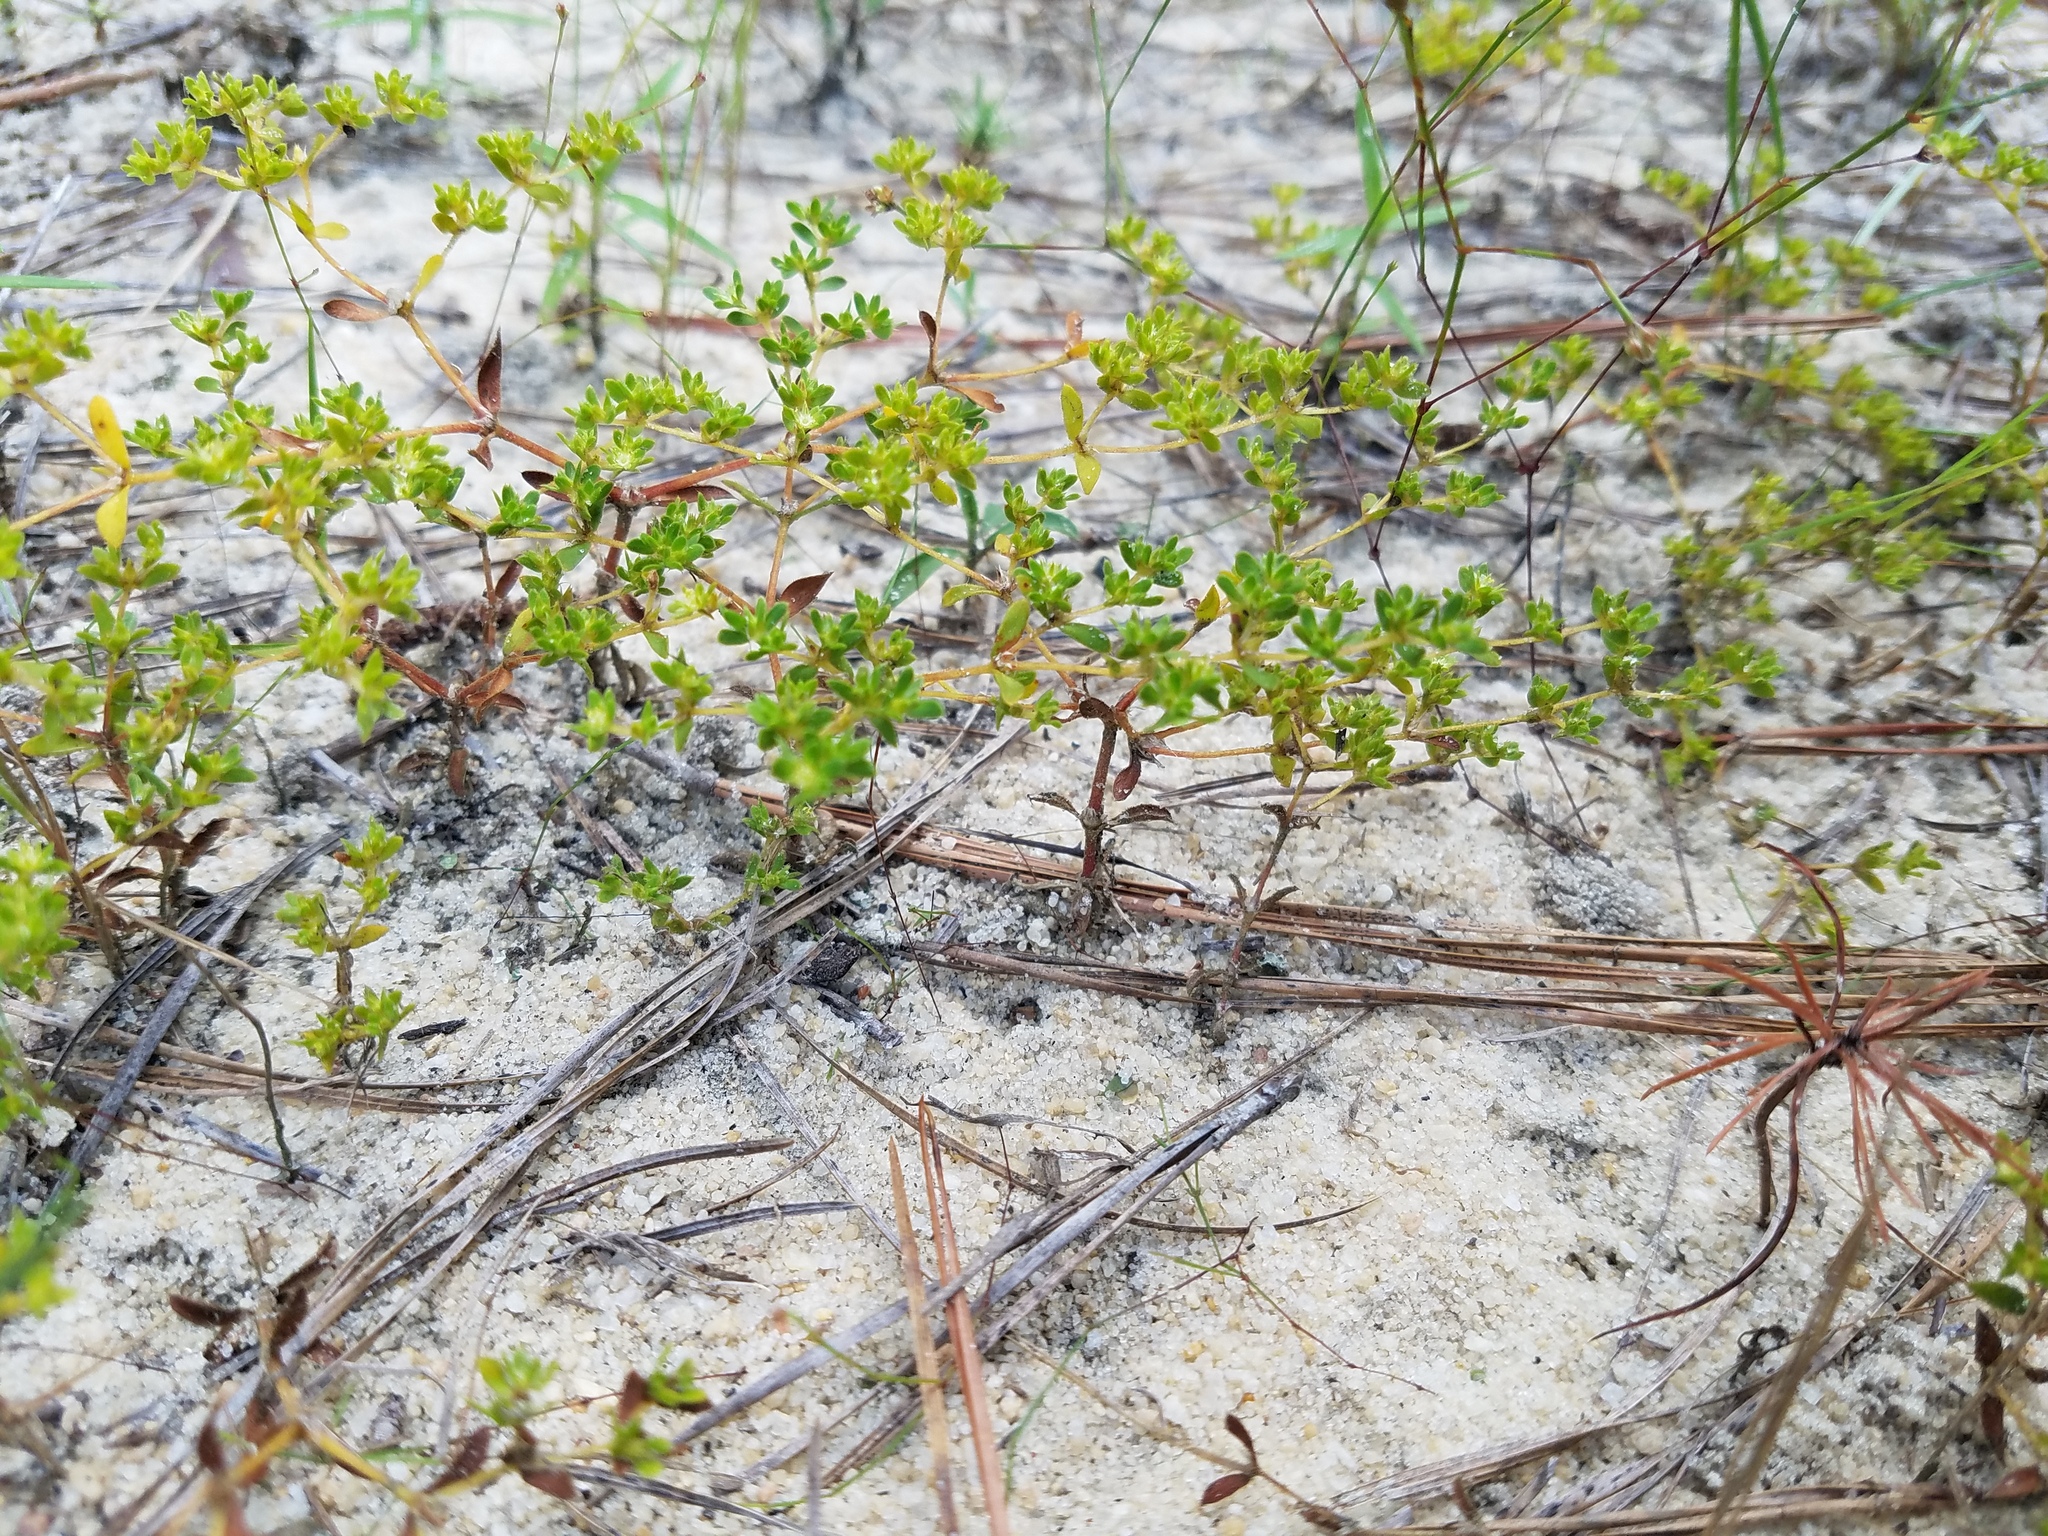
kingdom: Plantae
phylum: Tracheophyta
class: Magnoliopsida
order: Caryophyllales
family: Caryophyllaceae
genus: Paronychia
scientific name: Paronychia herniarioides
